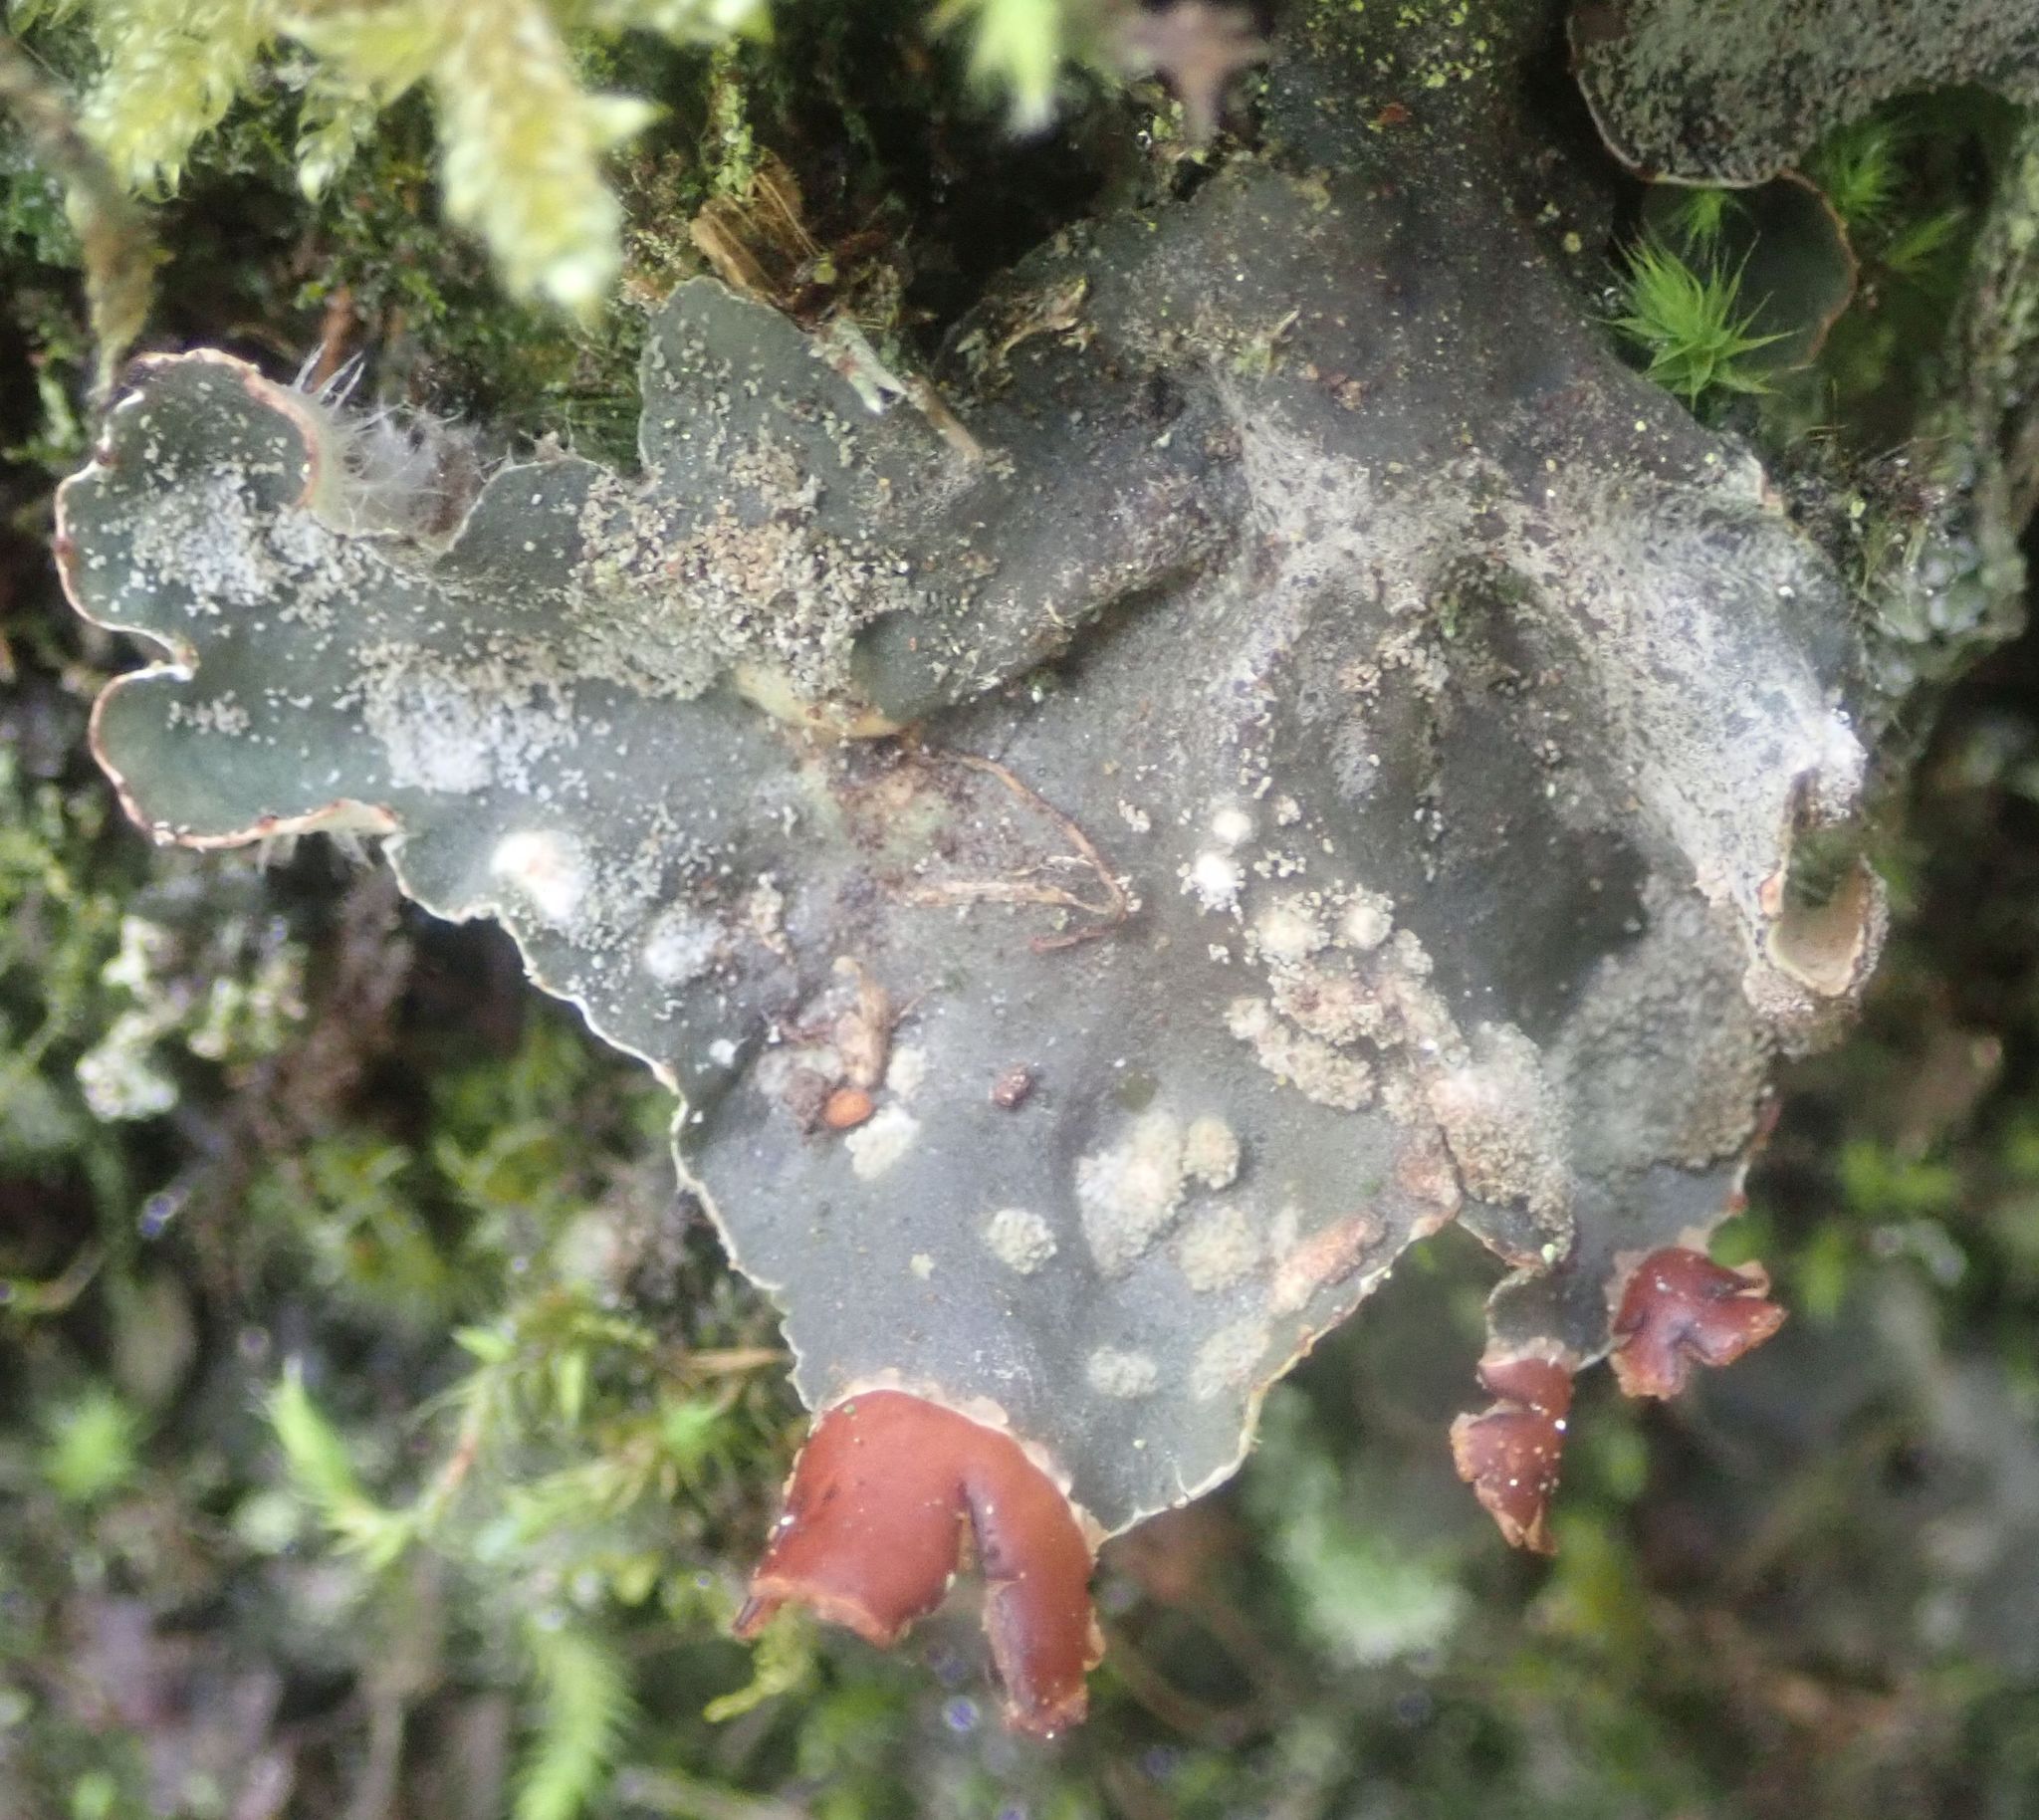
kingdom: Fungi
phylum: Ascomycota
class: Lecanoromycetes
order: Peltigerales
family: Peltigeraceae
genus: Peltigera
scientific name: Peltigera didactyla
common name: Alternating dog lichen
